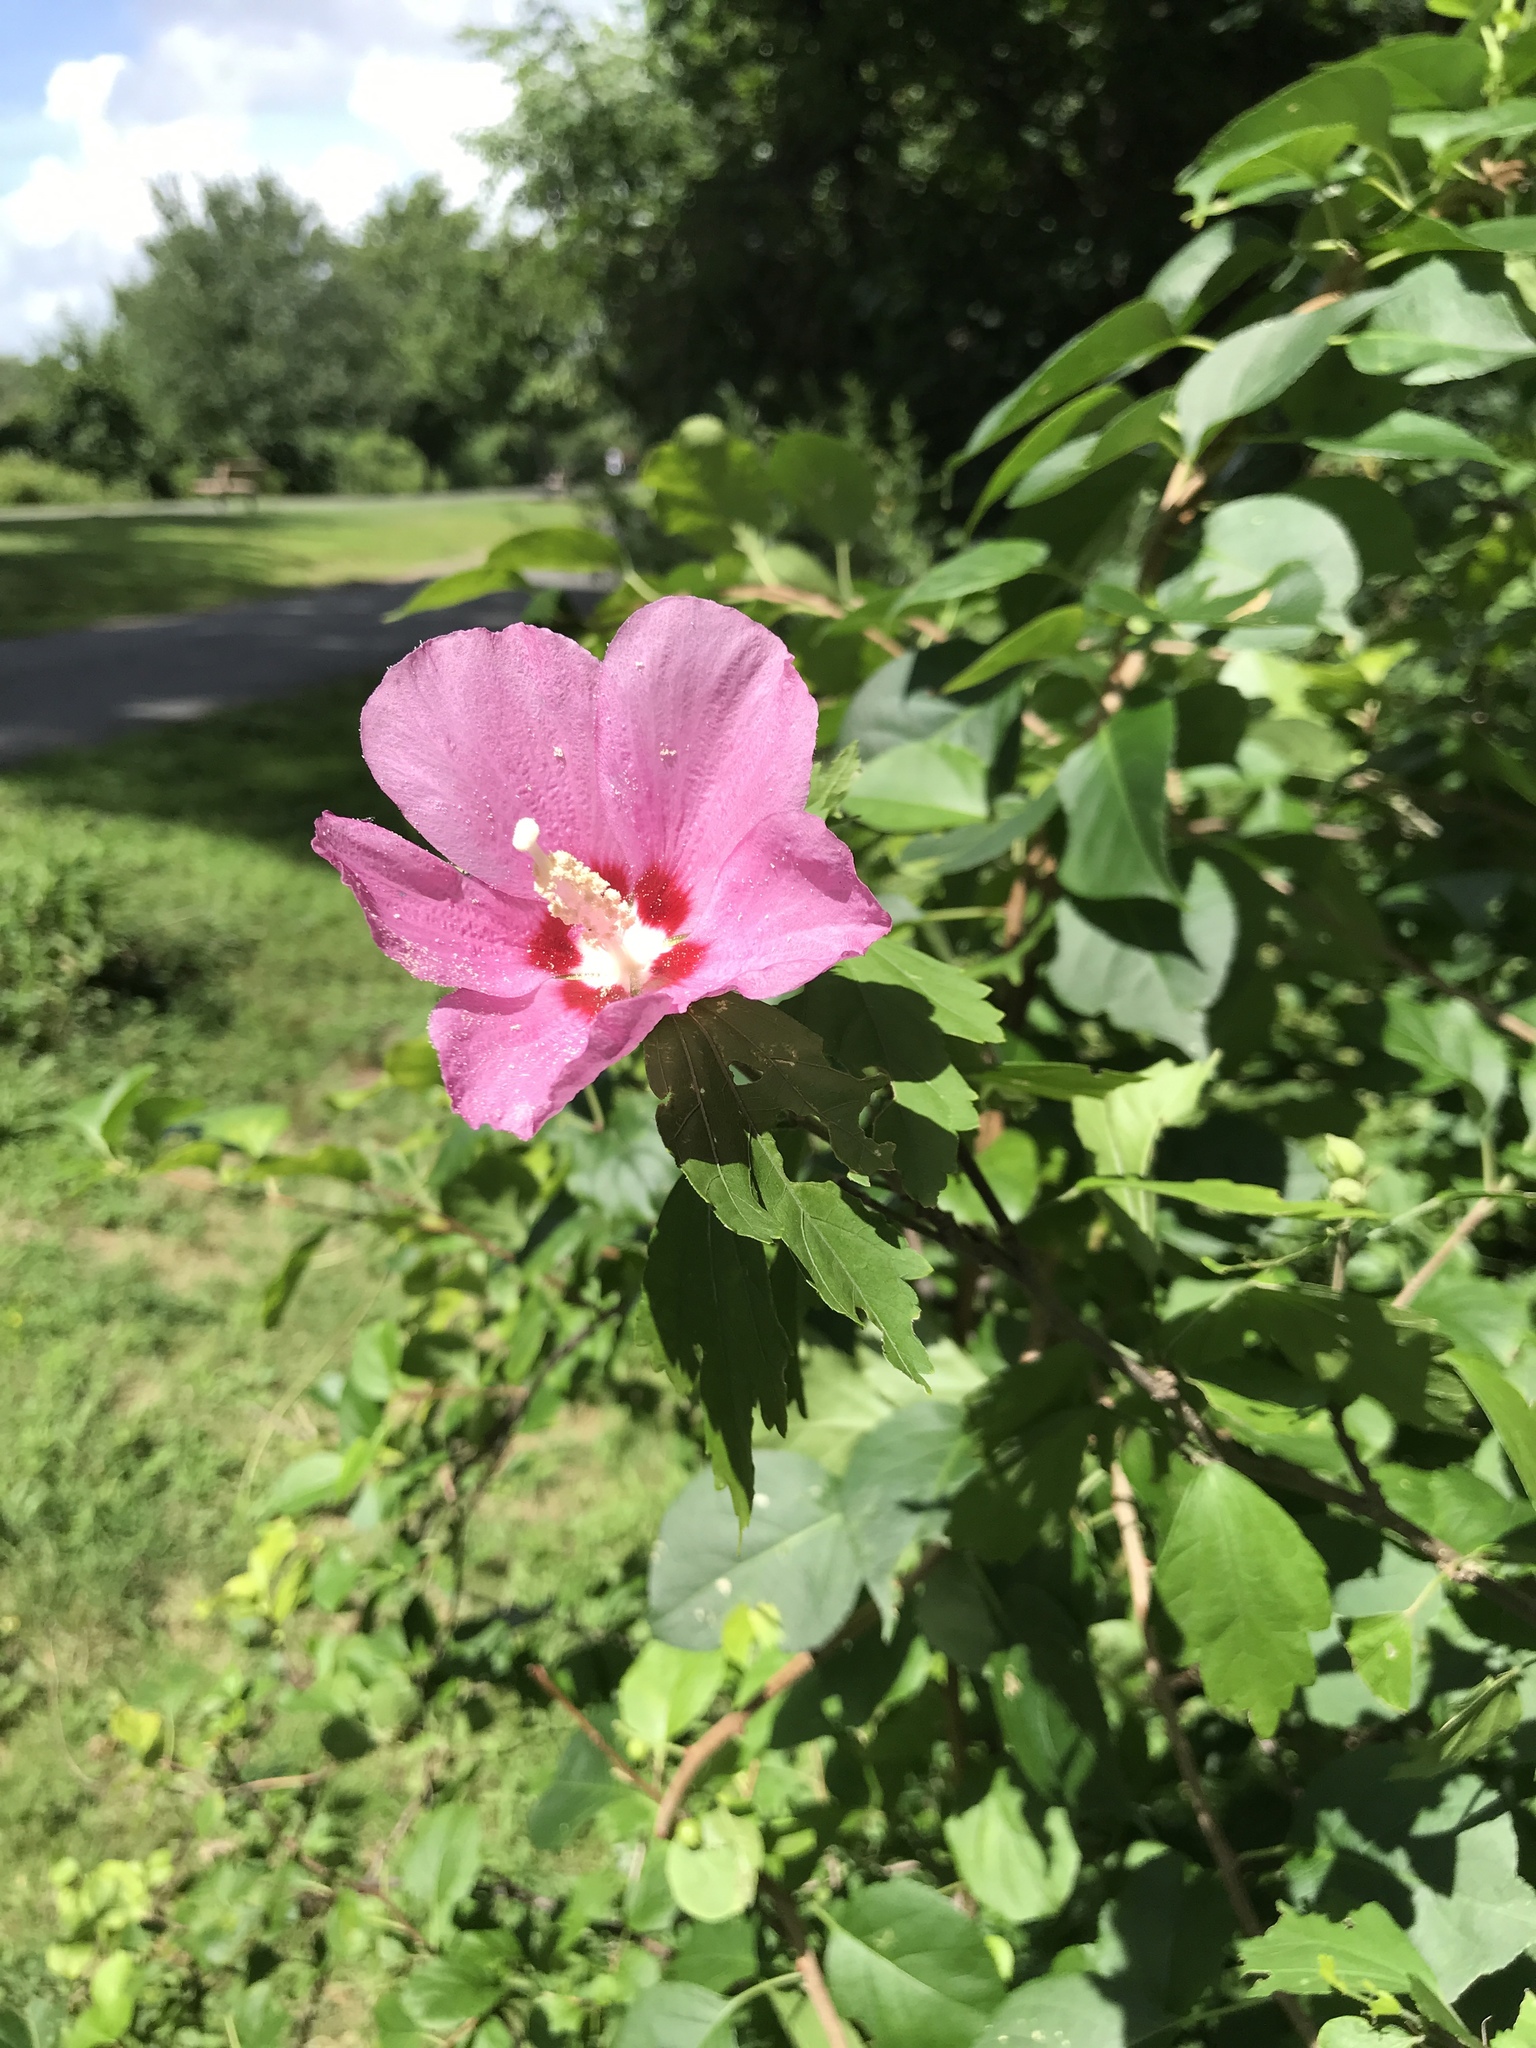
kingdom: Plantae
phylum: Tracheophyta
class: Magnoliopsida
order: Malvales
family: Malvaceae
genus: Hibiscus
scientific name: Hibiscus syriacus
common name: Syrian ketmia
